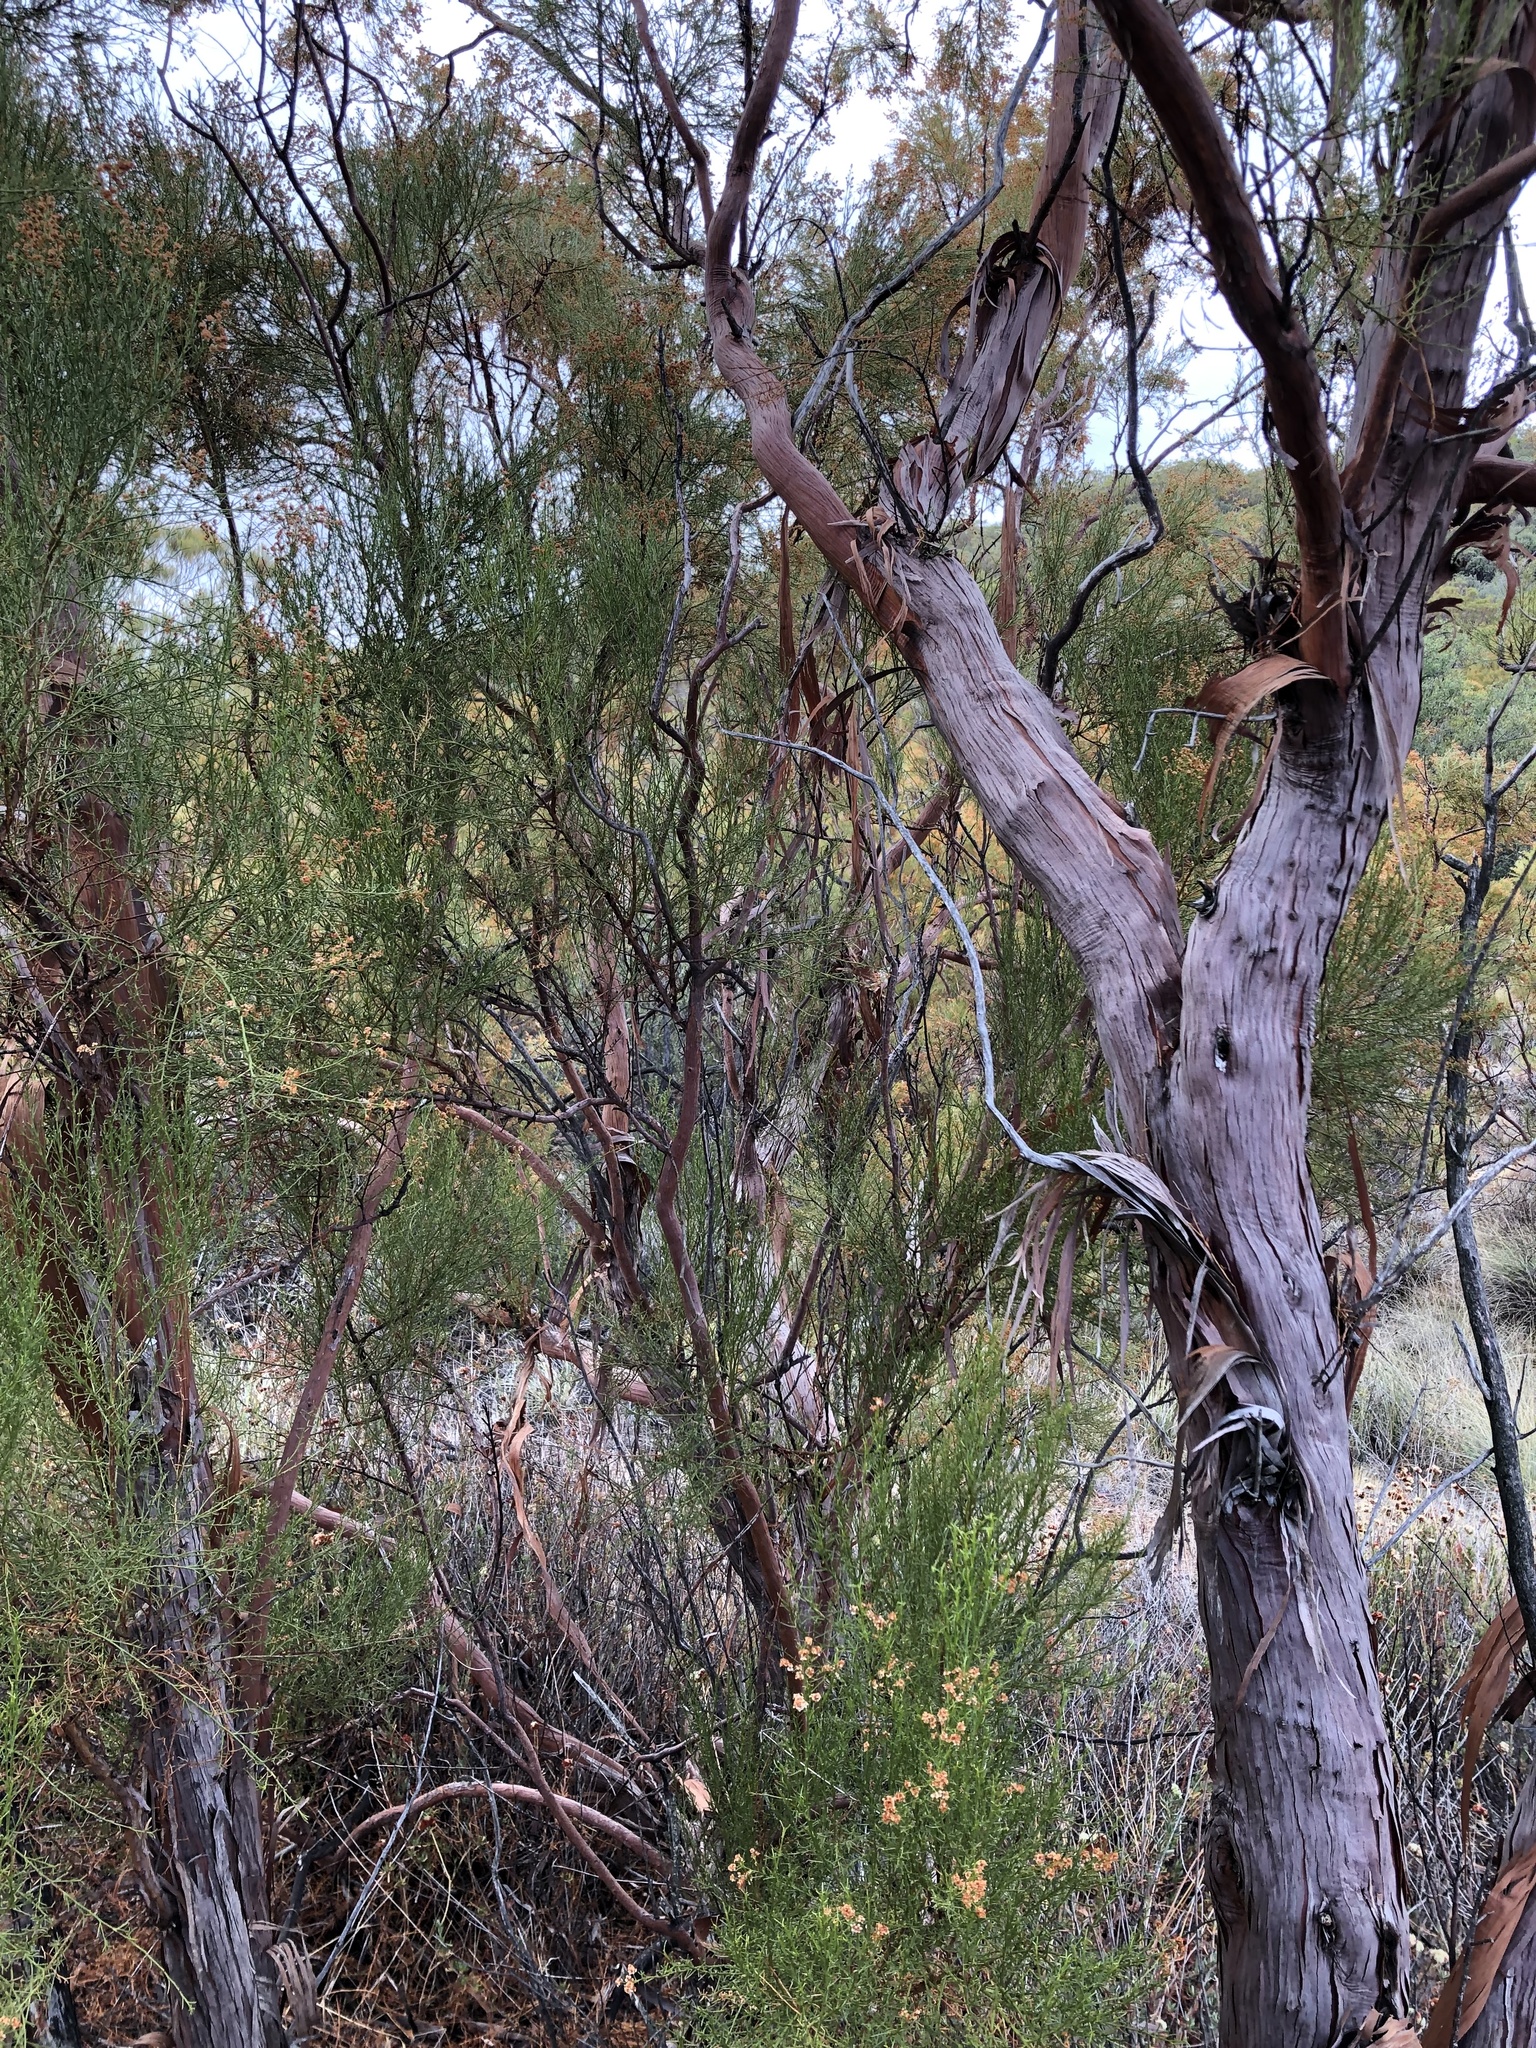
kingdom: Plantae
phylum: Tracheophyta
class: Magnoliopsida
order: Rosales
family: Rosaceae
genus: Adenostoma
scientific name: Adenostoma sparsifolium
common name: Red shank
